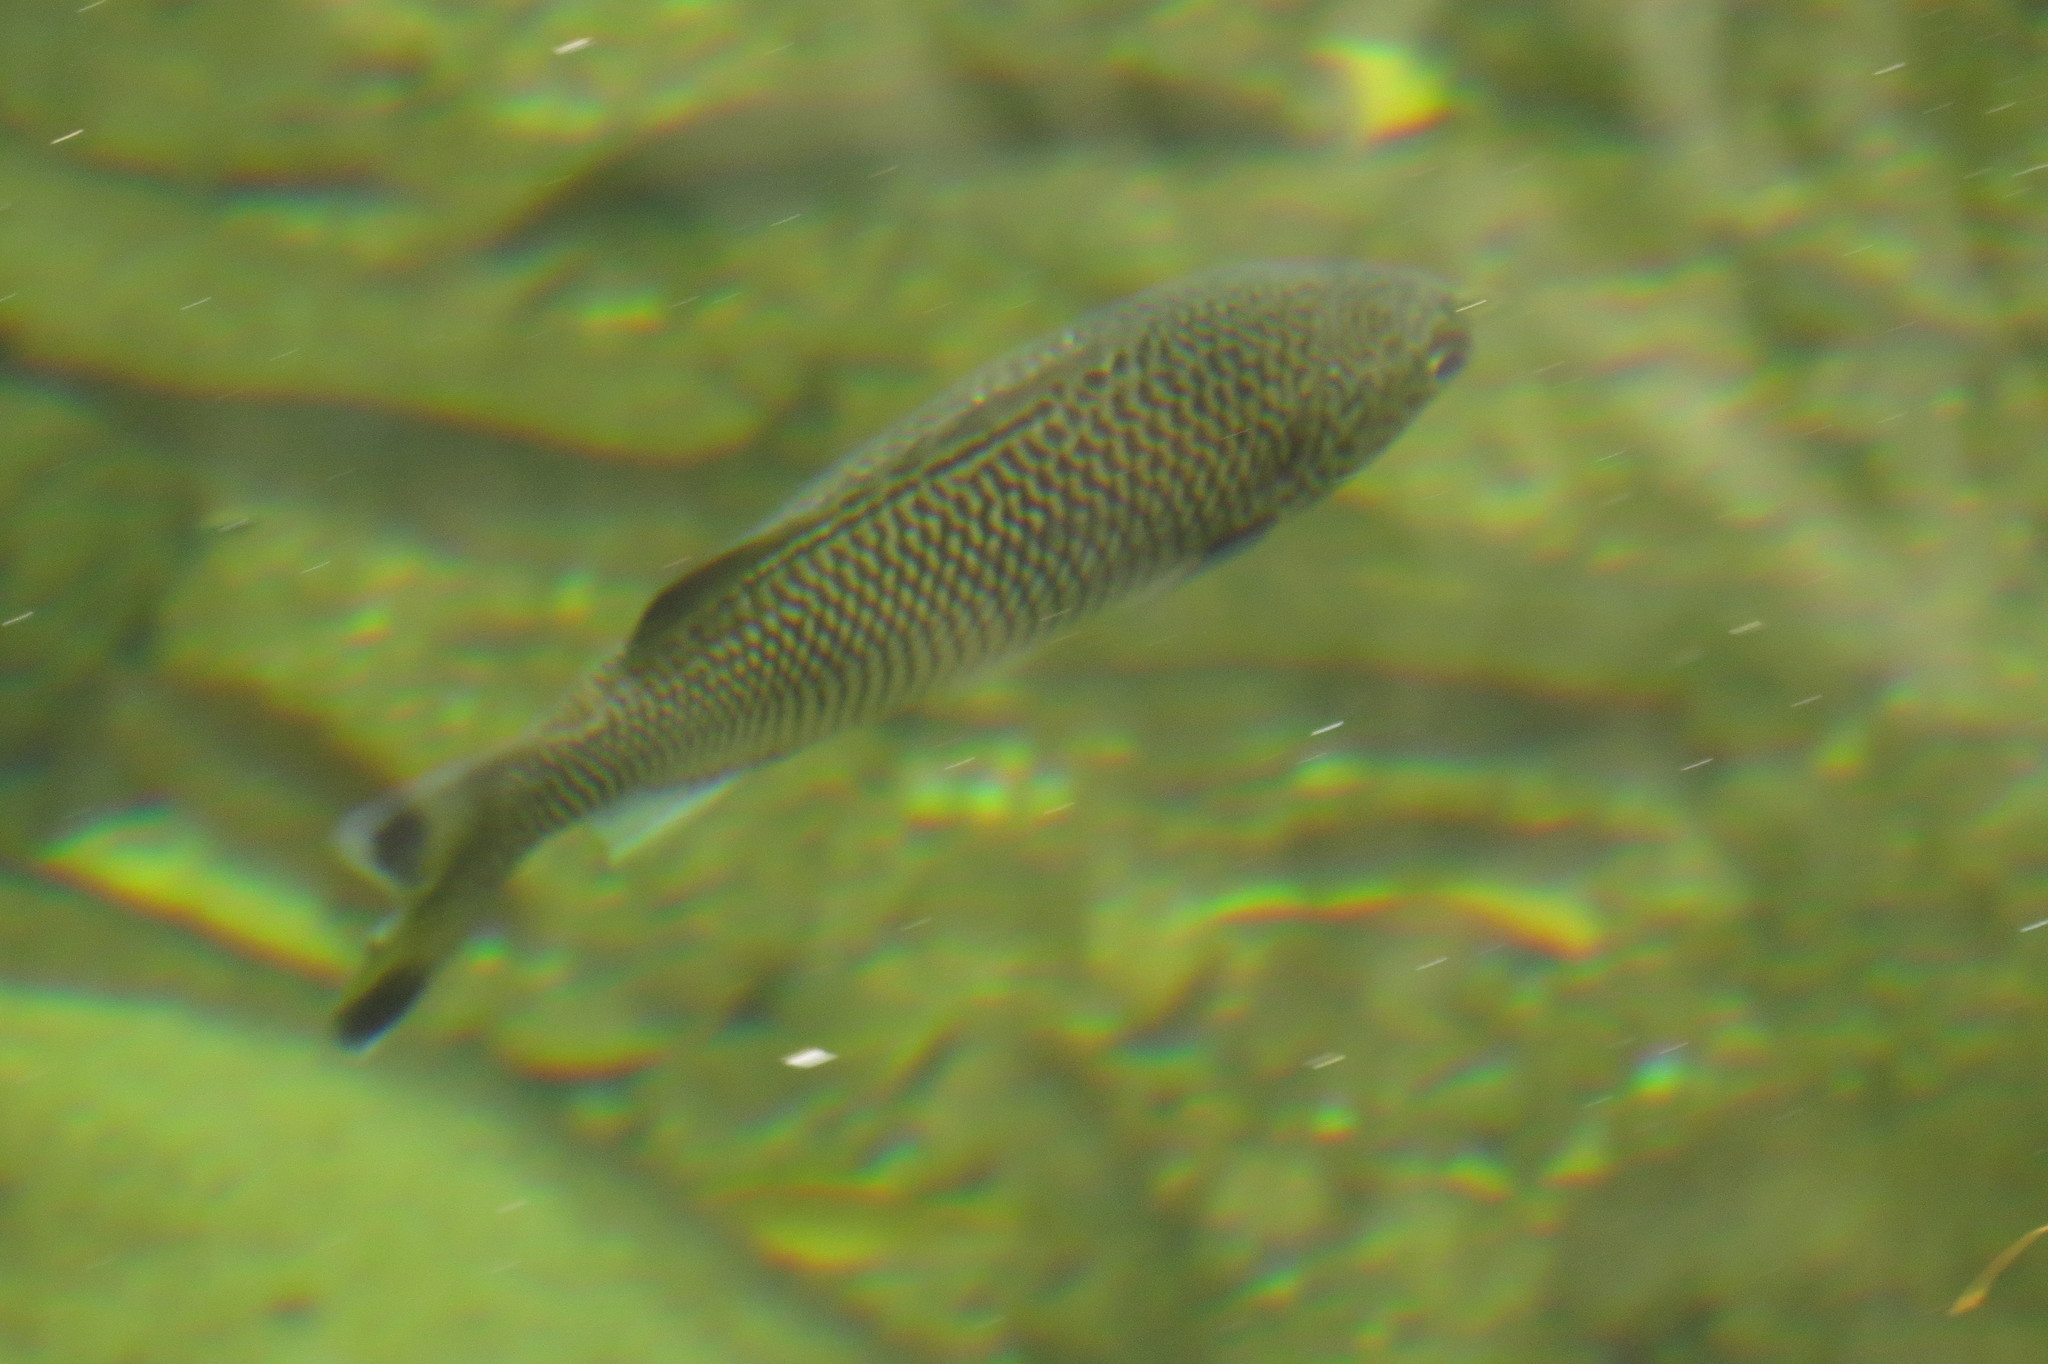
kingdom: Animalia
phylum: Chordata
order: Perciformes
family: Kuhliidae
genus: Kuhlia
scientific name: Kuhlia rupestris
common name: Rock flagtail
